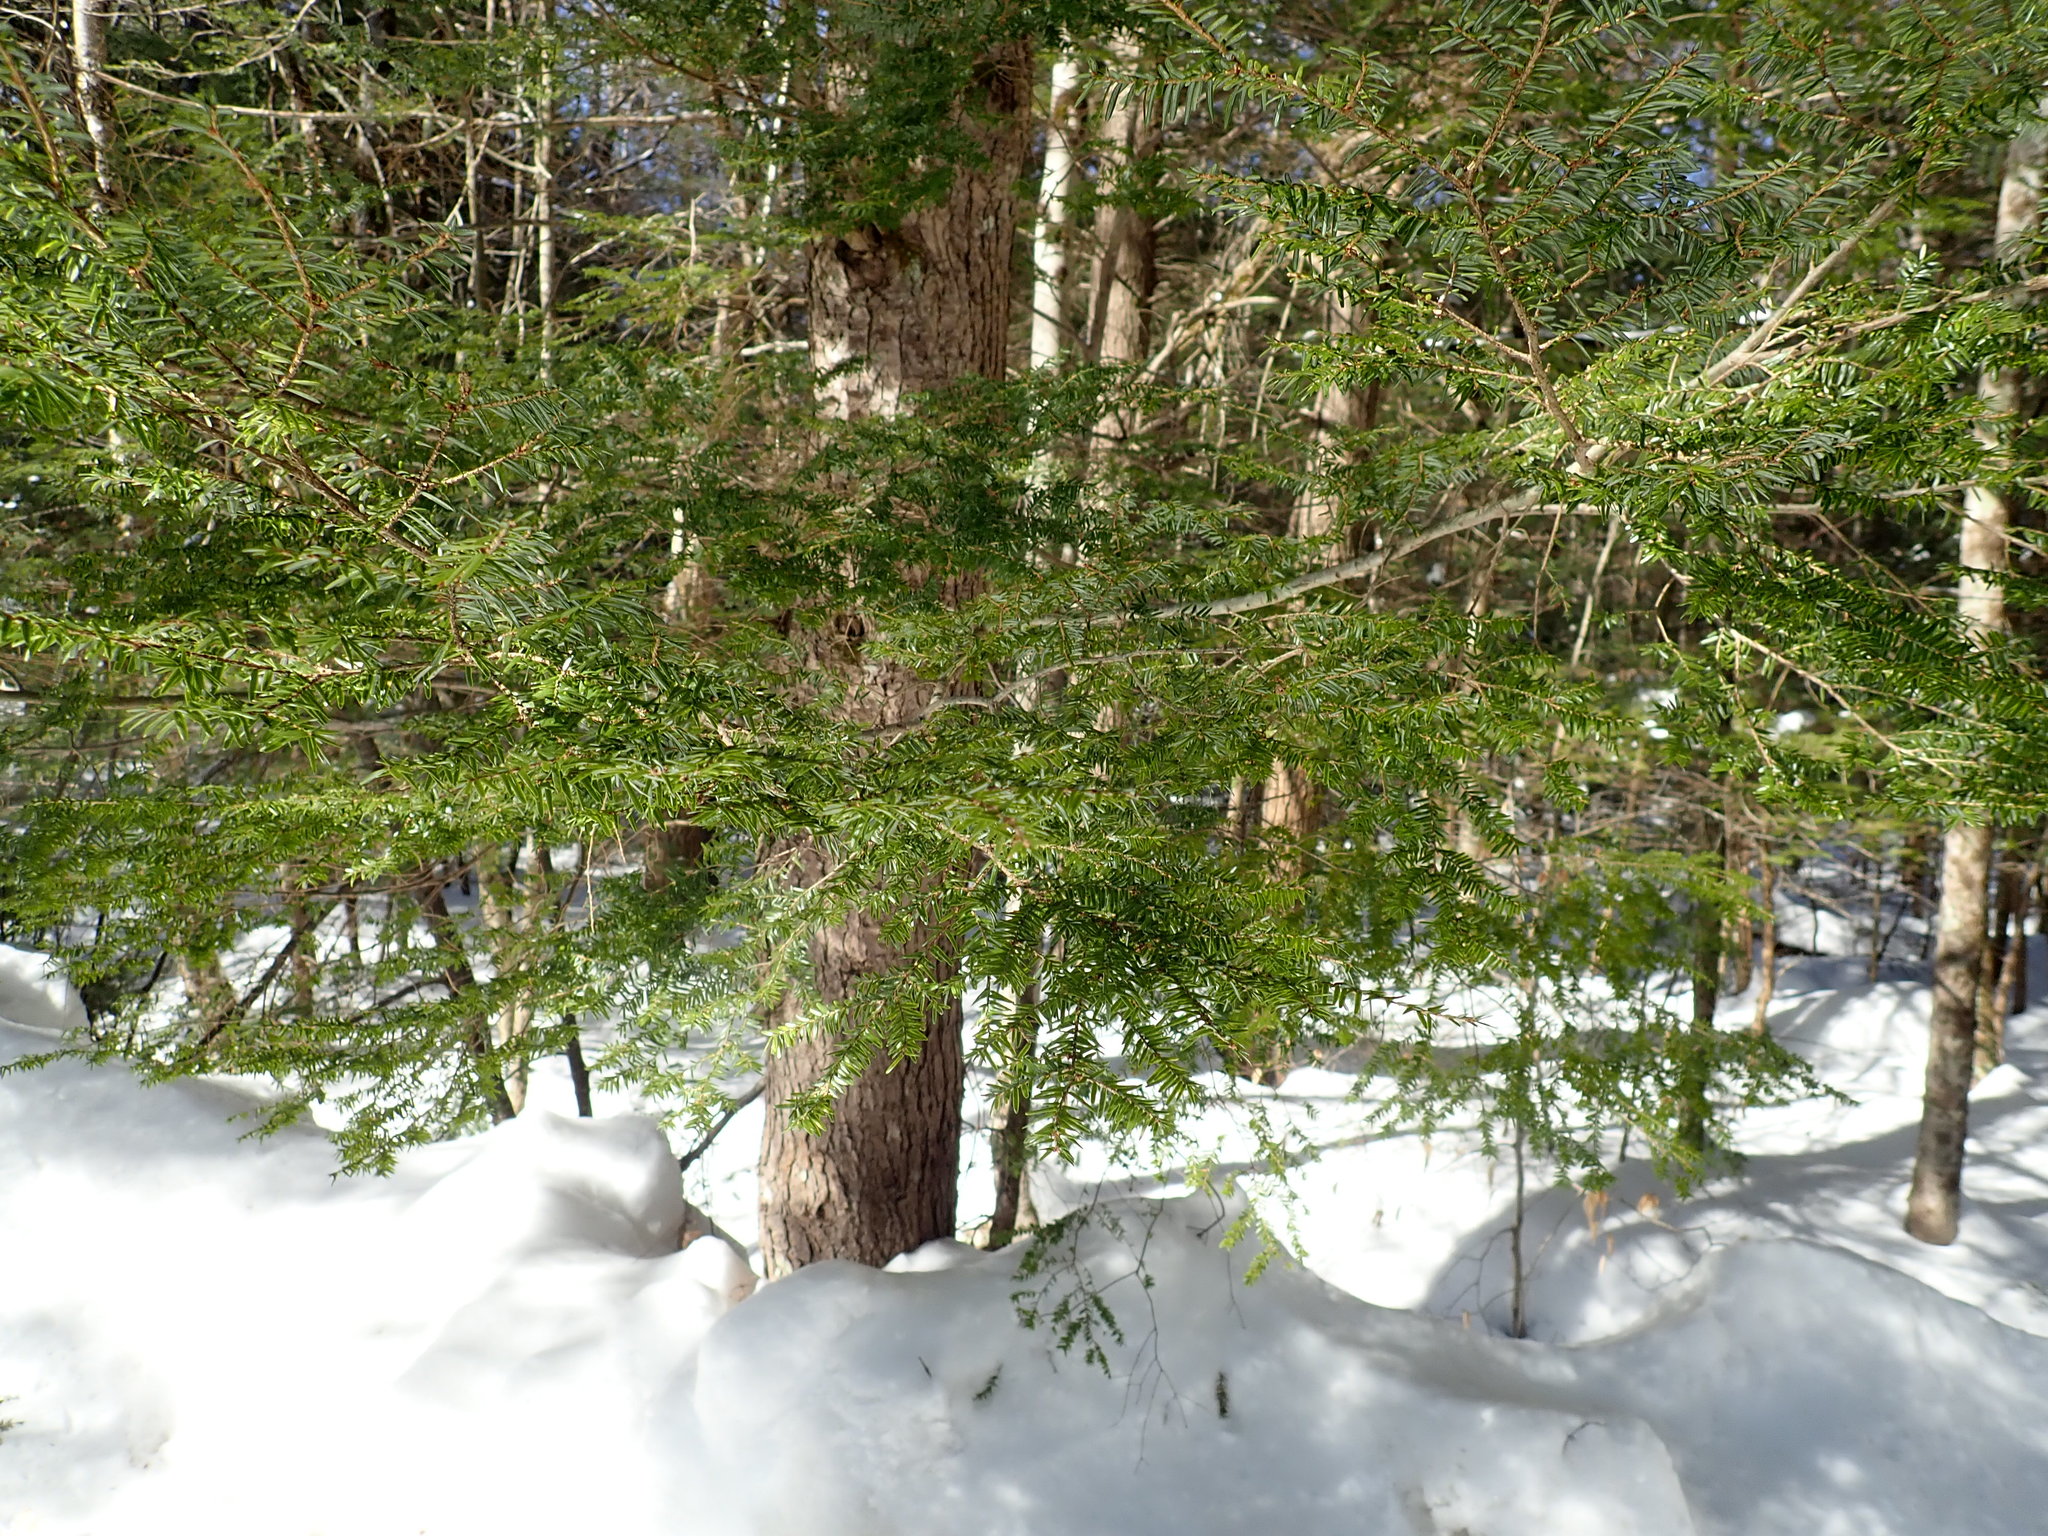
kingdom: Plantae
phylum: Tracheophyta
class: Pinopsida
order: Pinales
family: Pinaceae
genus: Tsuga
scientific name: Tsuga canadensis
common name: Eastern hemlock
